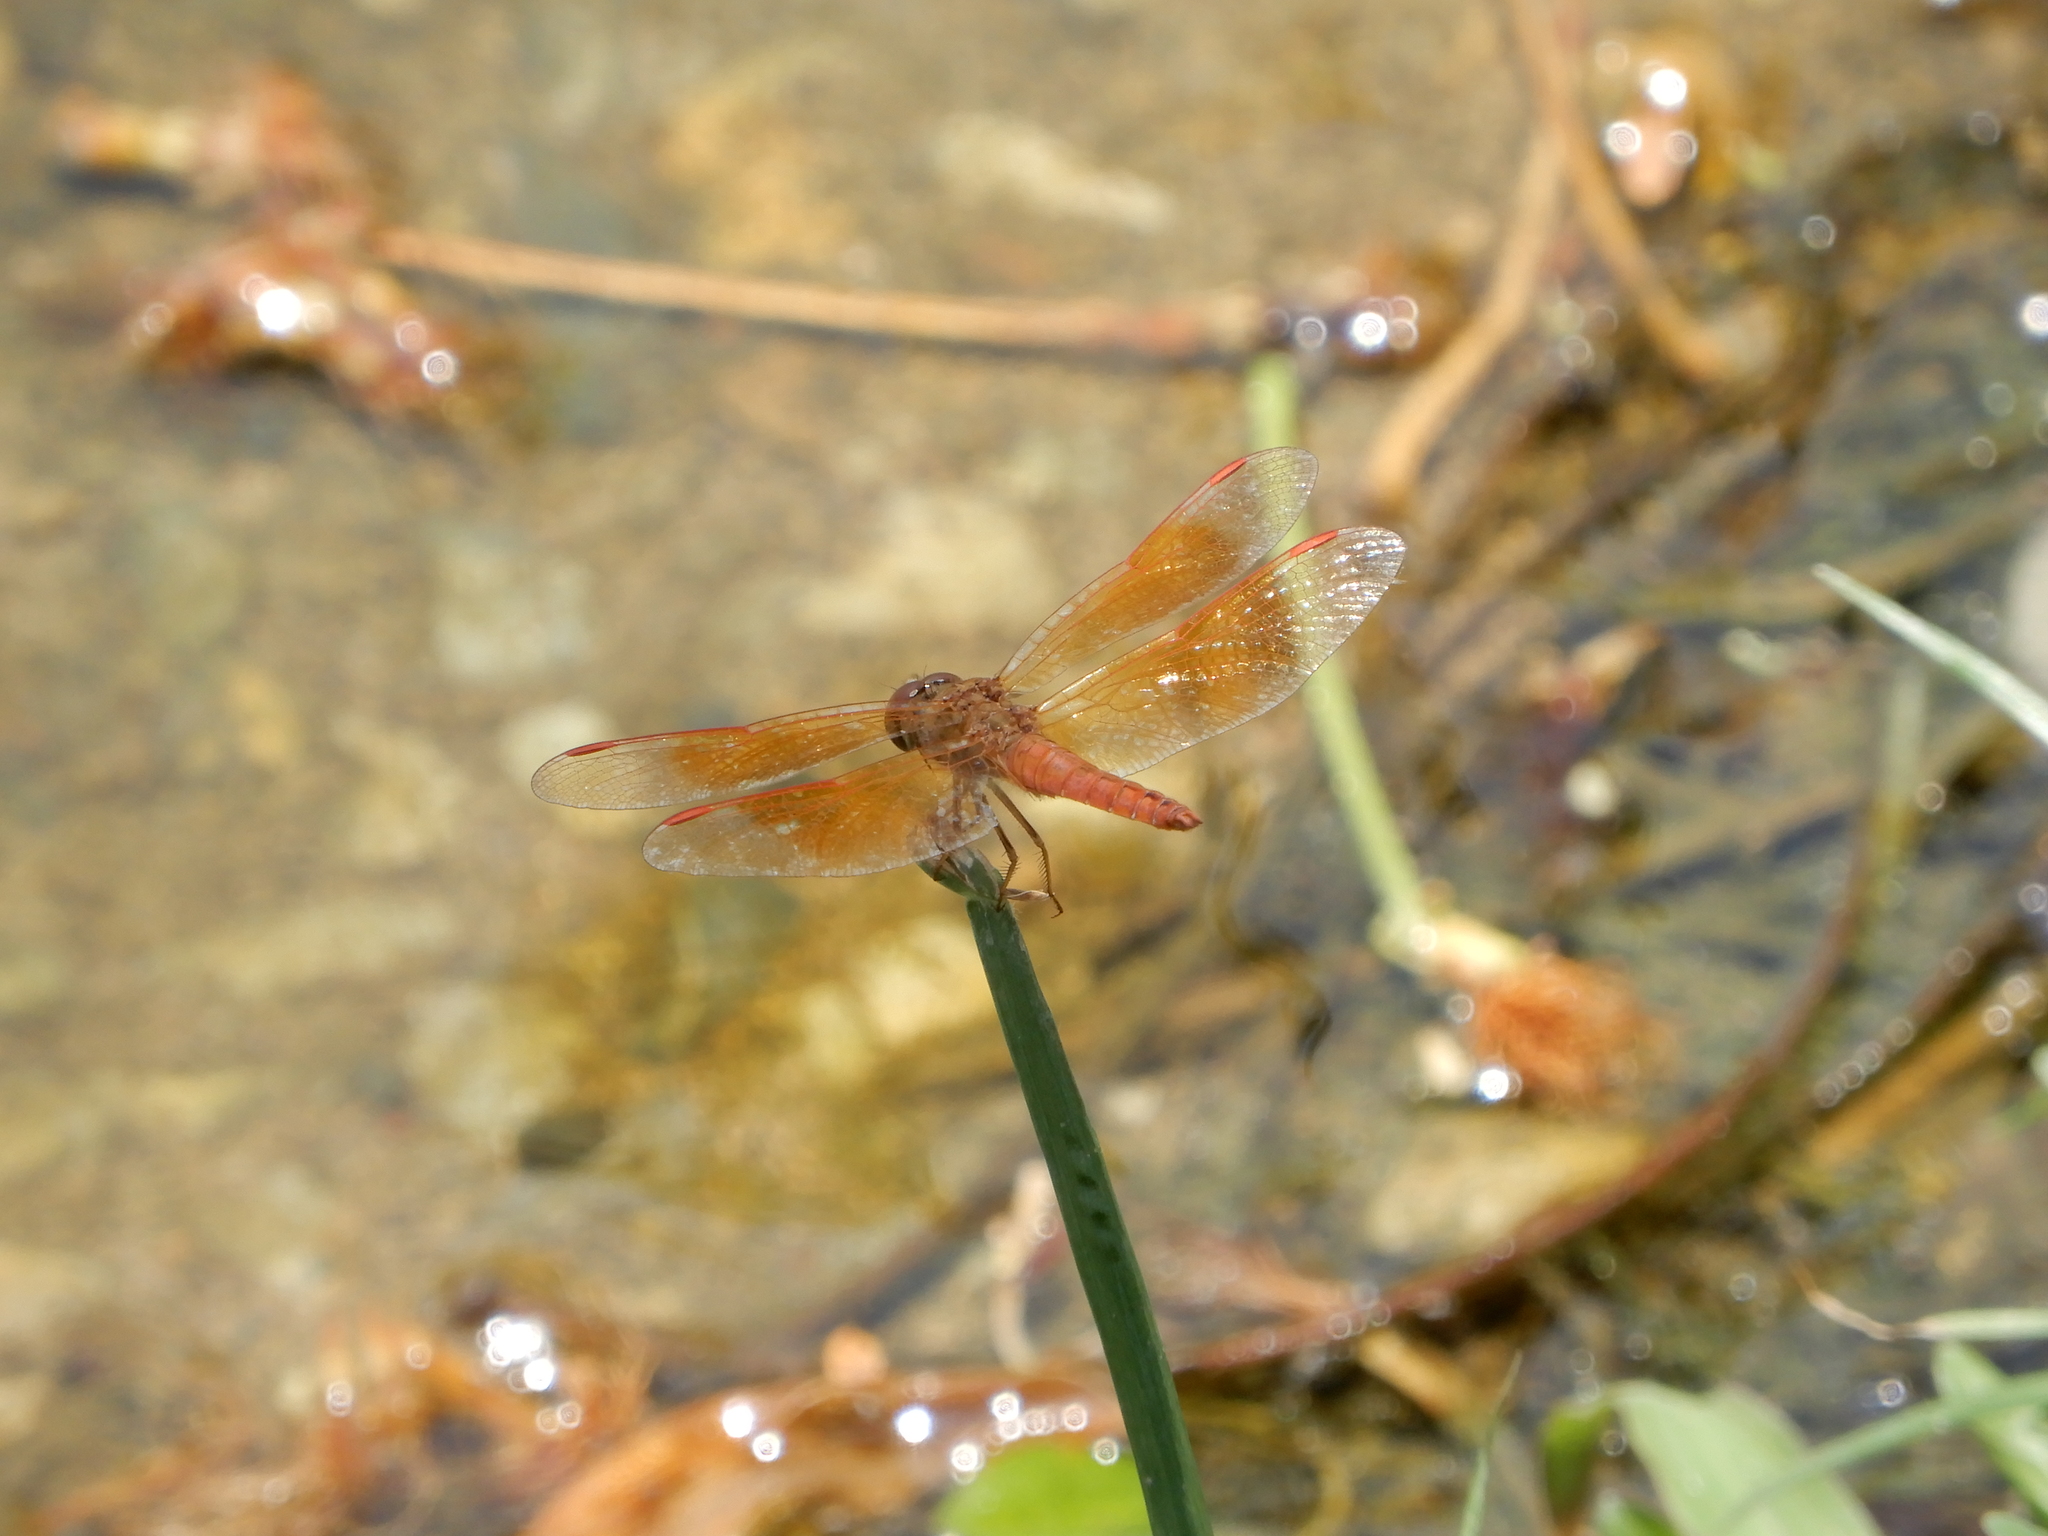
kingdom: Animalia
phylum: Arthropoda
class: Insecta
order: Odonata
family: Libellulidae
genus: Brachythemis
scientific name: Brachythemis contaminata
